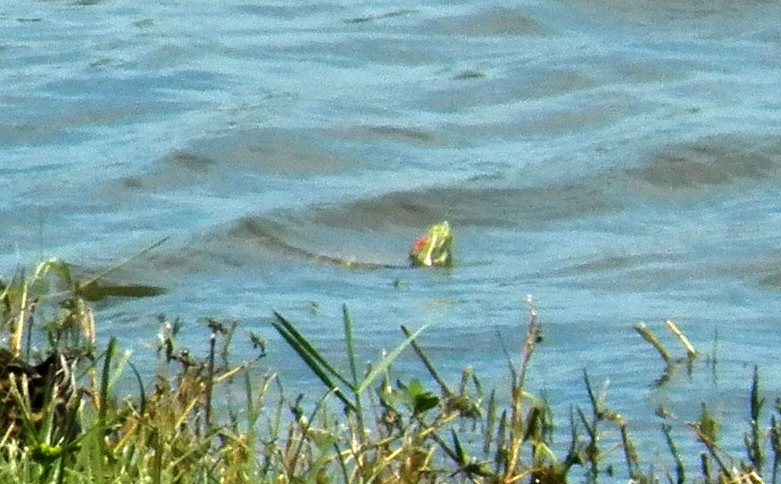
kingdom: Animalia
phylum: Chordata
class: Testudines
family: Emydidae
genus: Trachemys
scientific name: Trachemys scripta
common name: Slider
